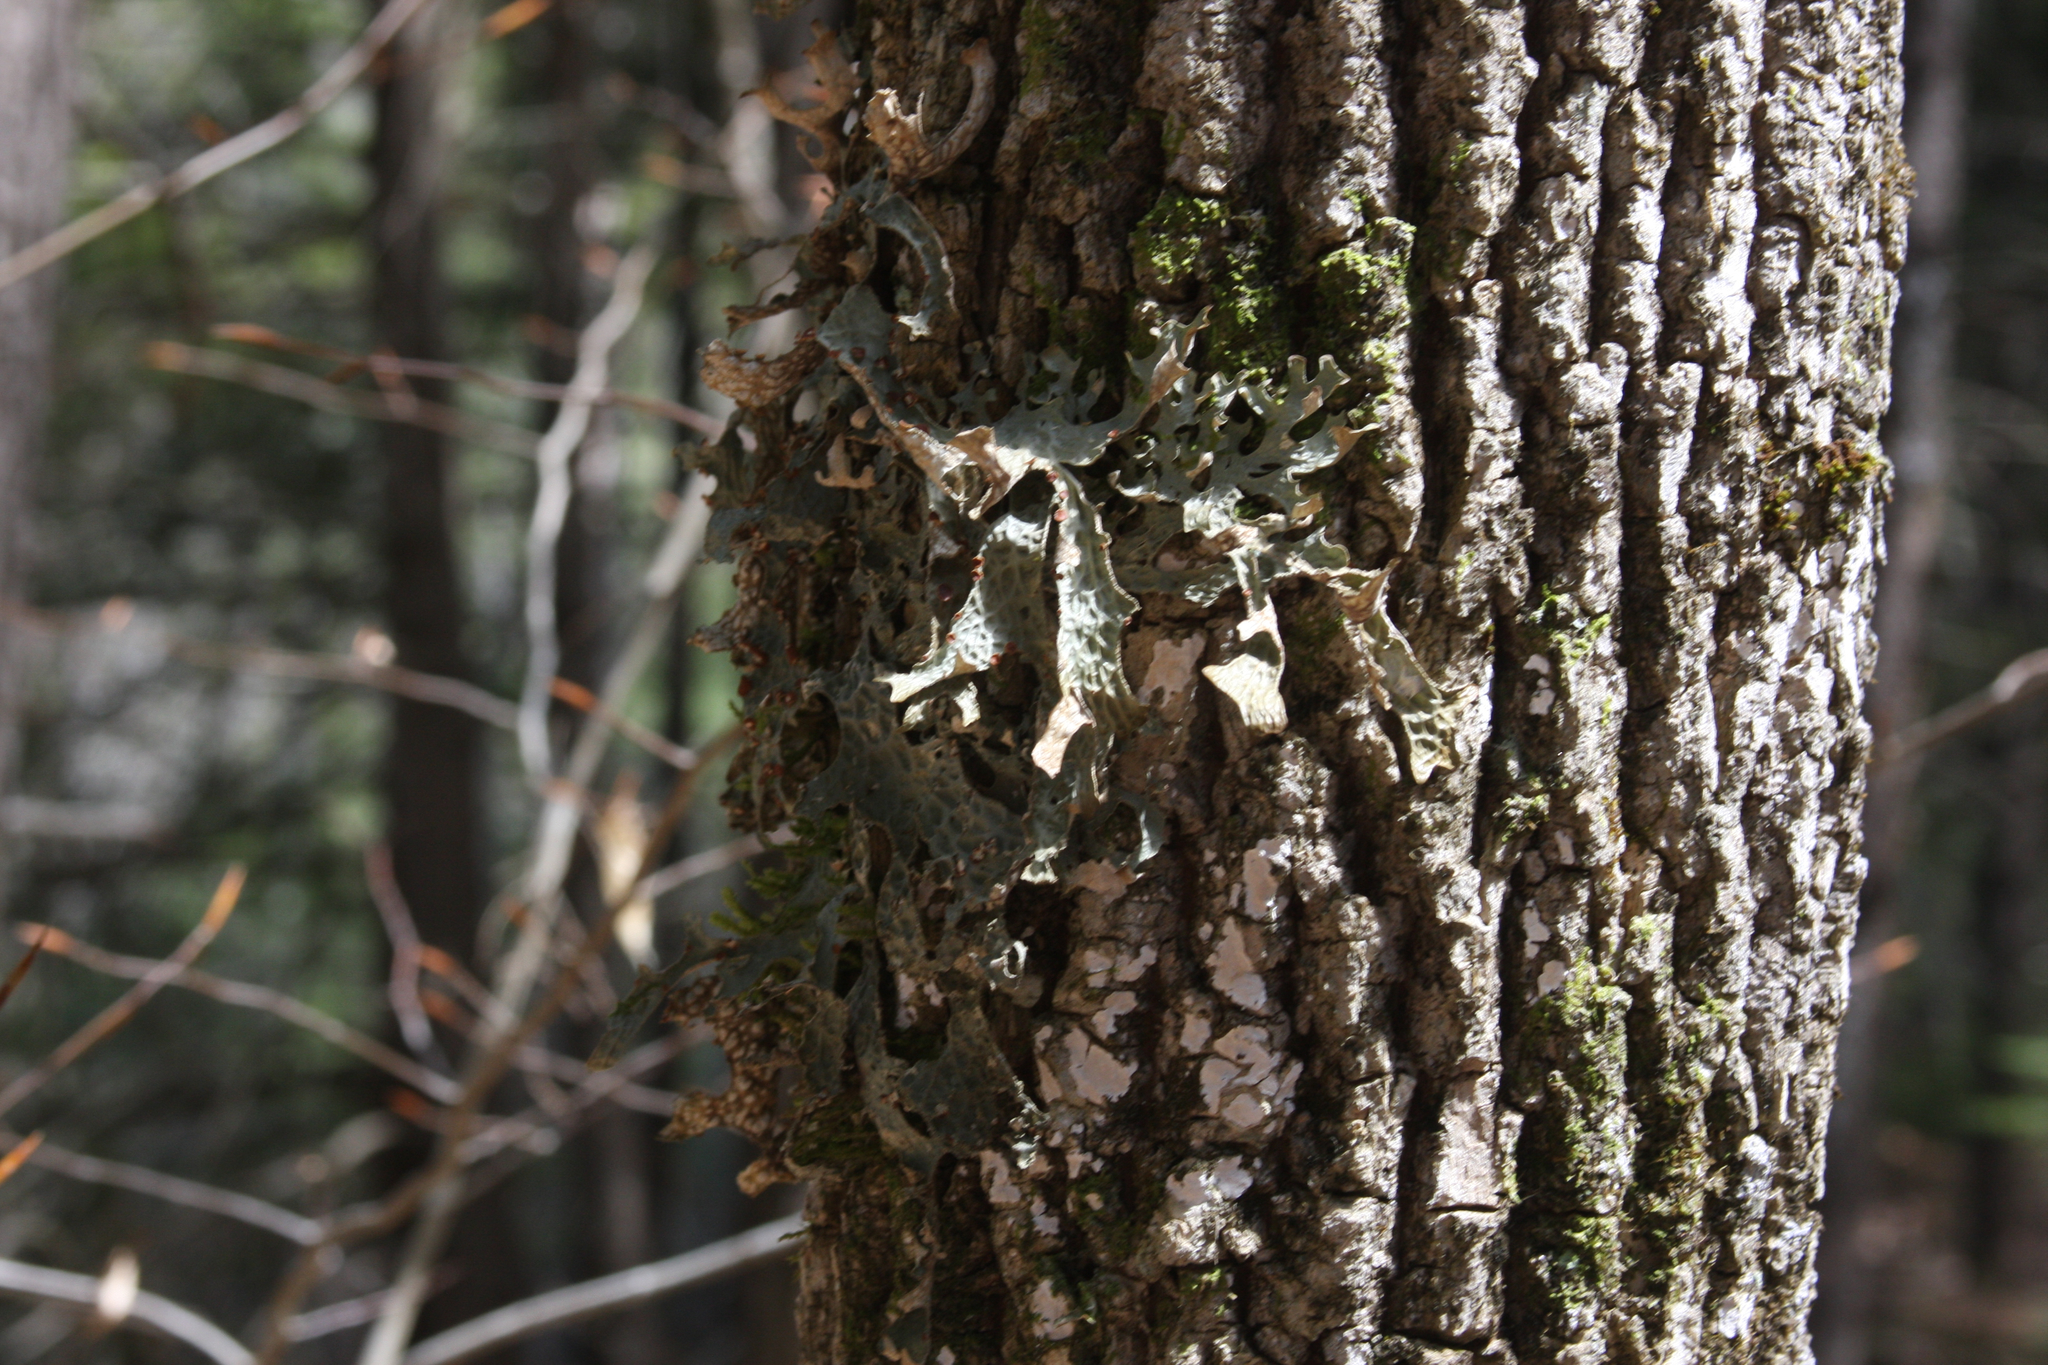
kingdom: Fungi
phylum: Ascomycota
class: Lecanoromycetes
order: Peltigerales
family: Lobariaceae
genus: Lobaria
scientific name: Lobaria pulmonaria
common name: Lungwort
